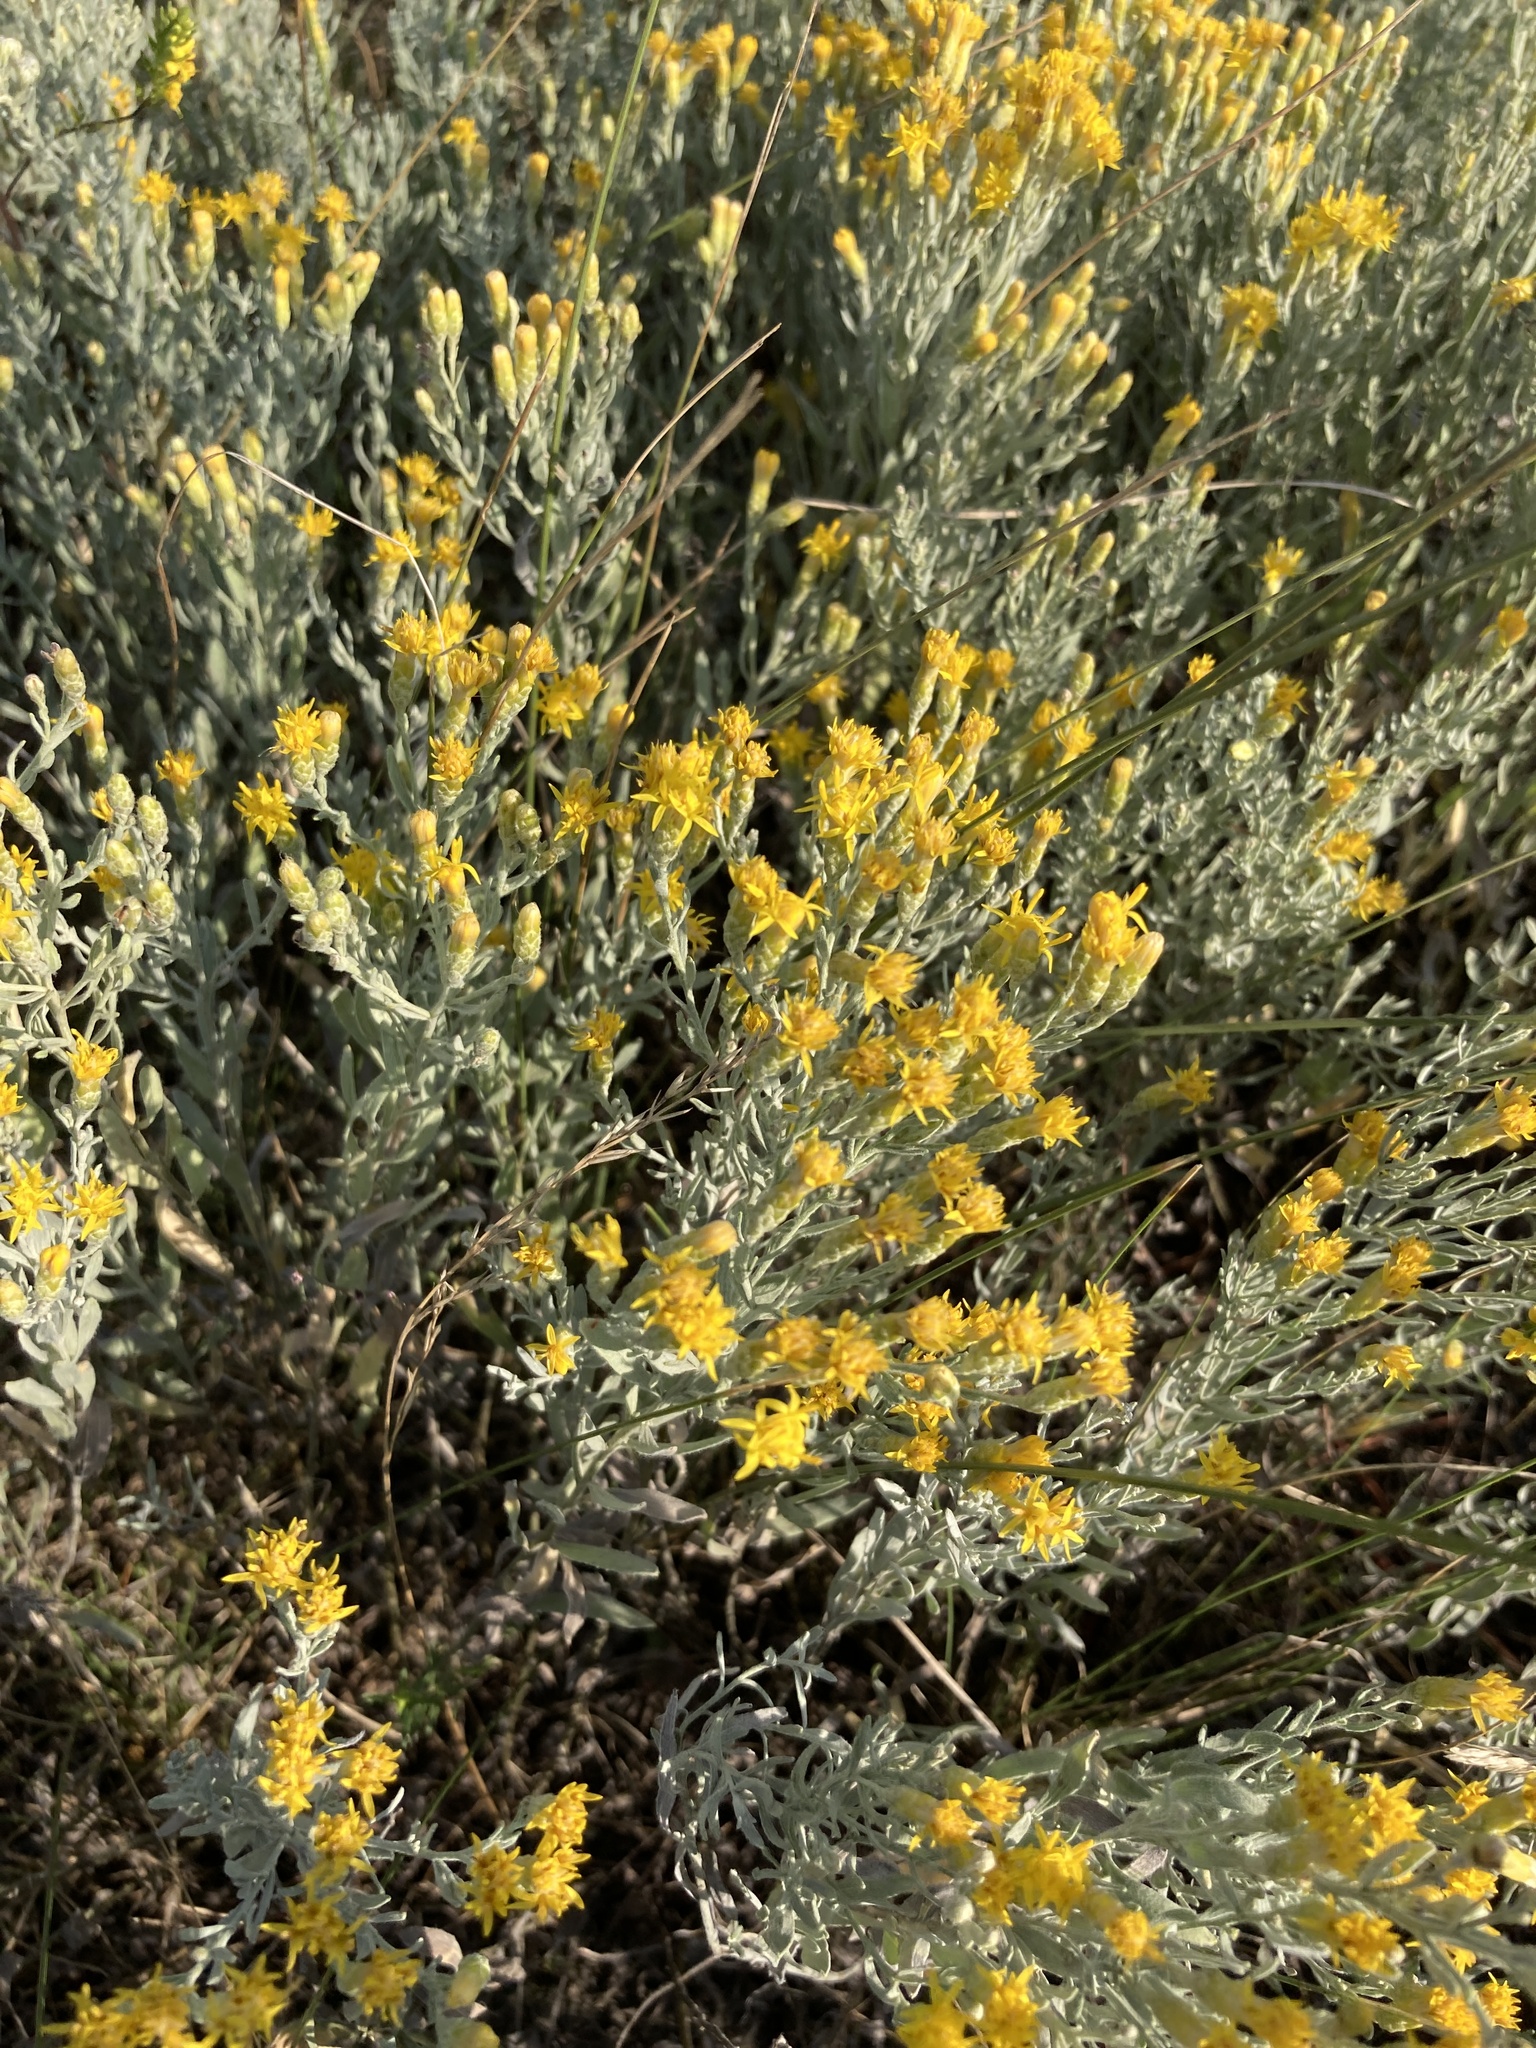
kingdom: Plantae
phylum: Tracheophyta
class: Magnoliopsida
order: Asterales
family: Asteraceae
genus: Galatella
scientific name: Galatella villosa
